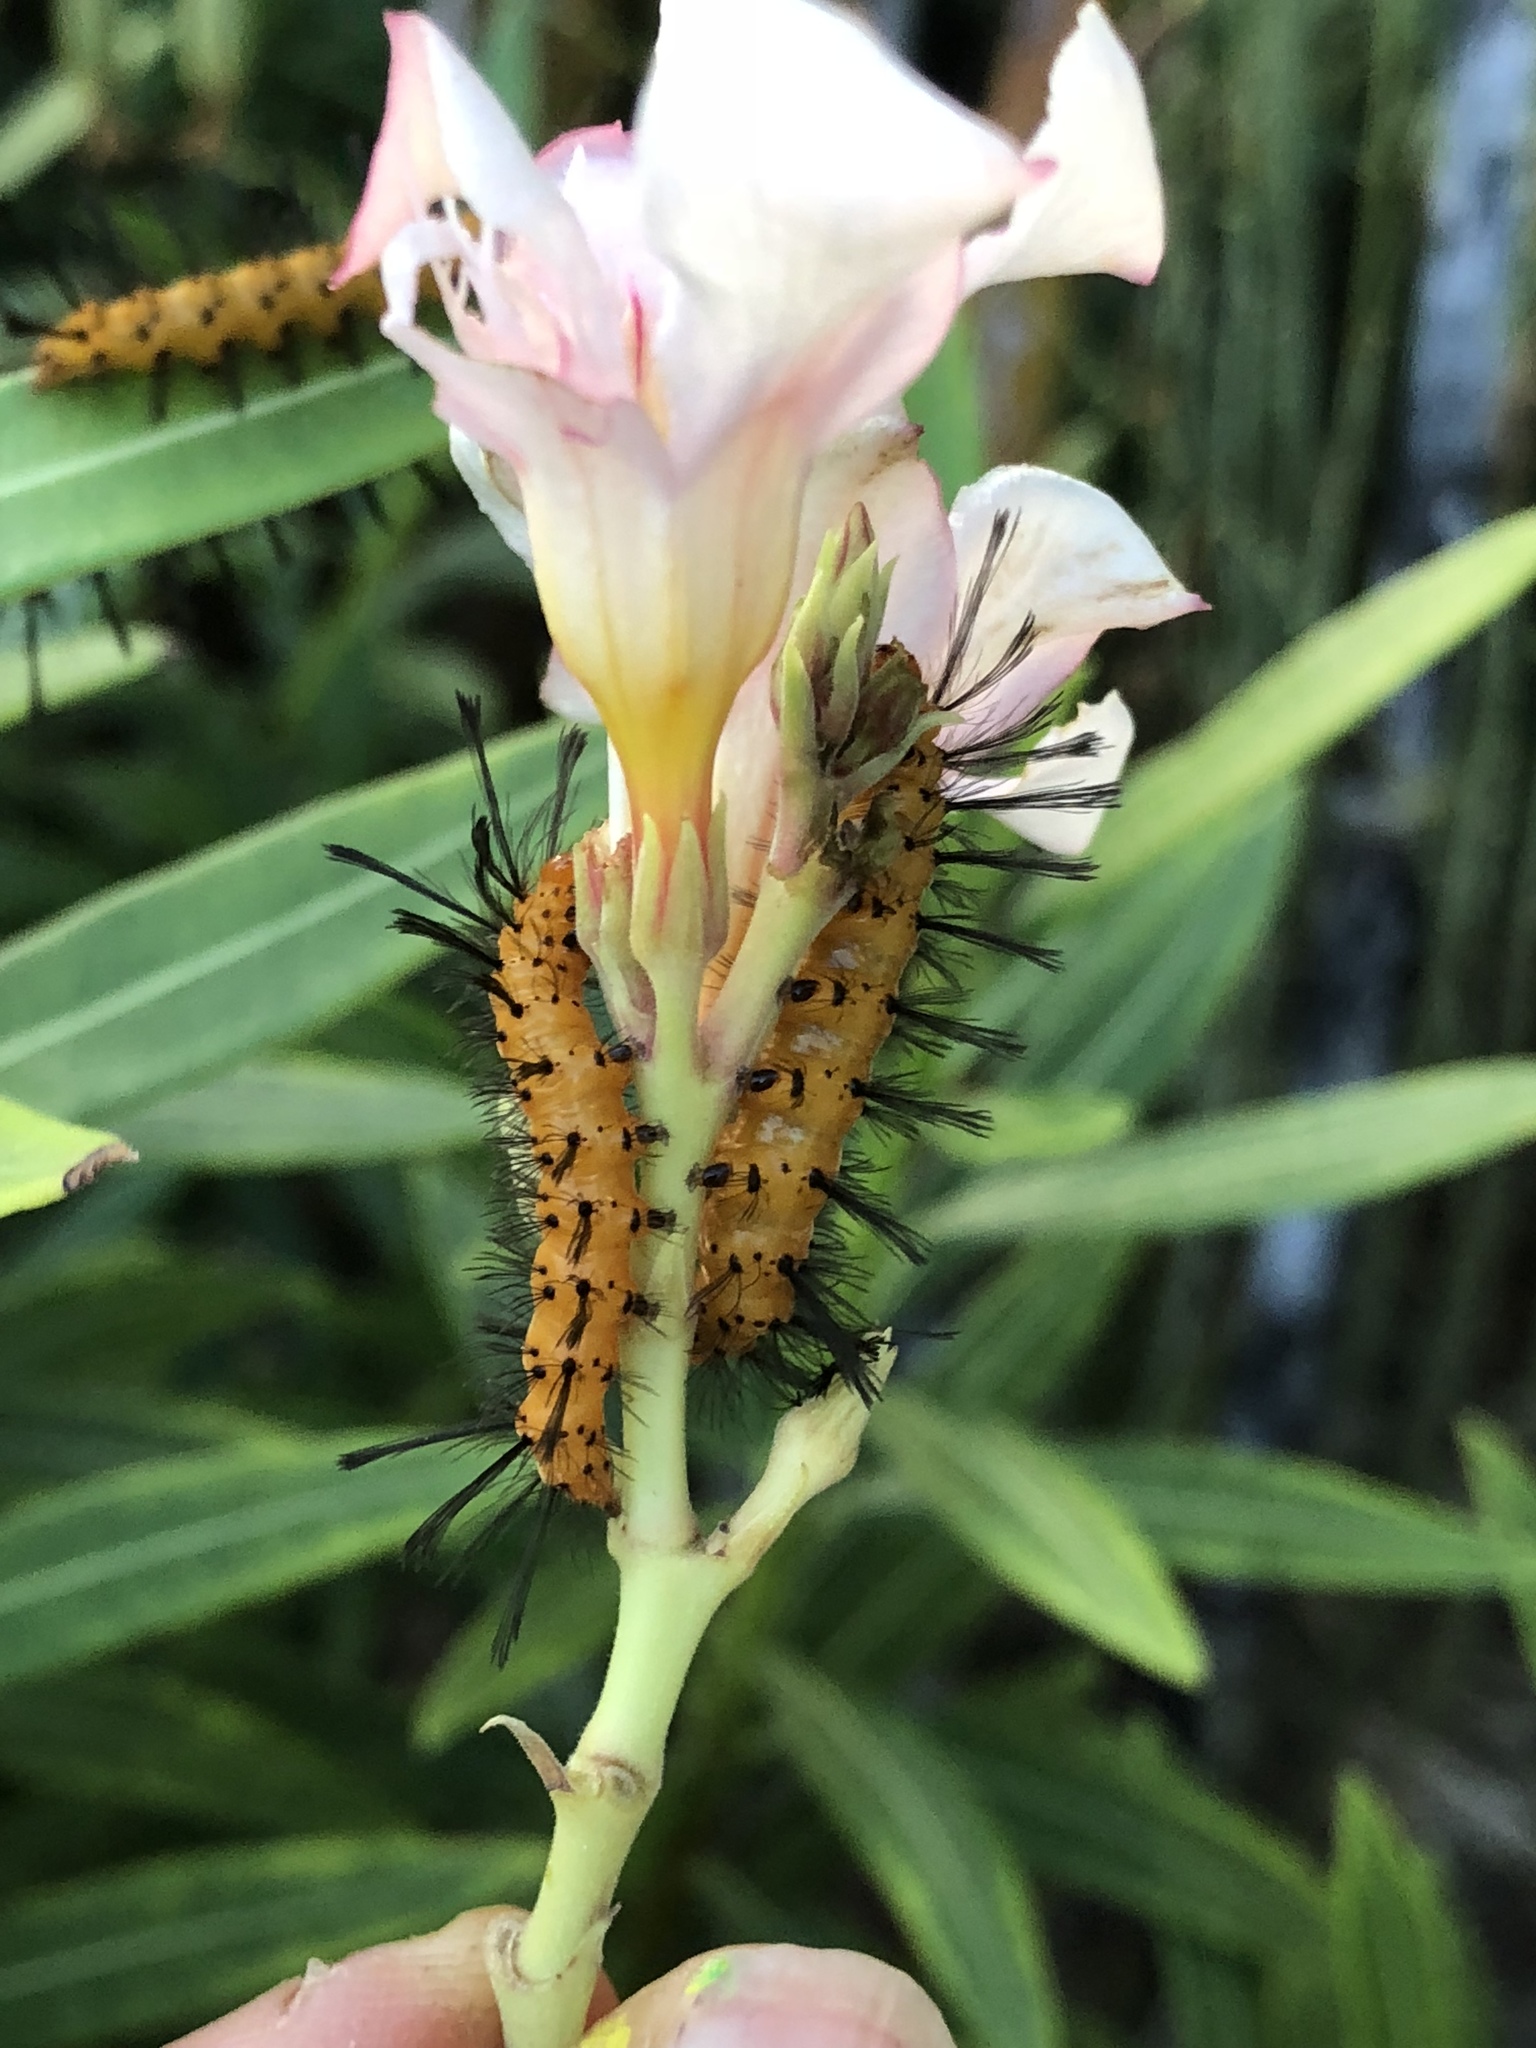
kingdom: Animalia
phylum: Arthropoda
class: Insecta
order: Lepidoptera
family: Erebidae
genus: Syntomeida
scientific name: Syntomeida epilais
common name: Polka-dot wasp moth
